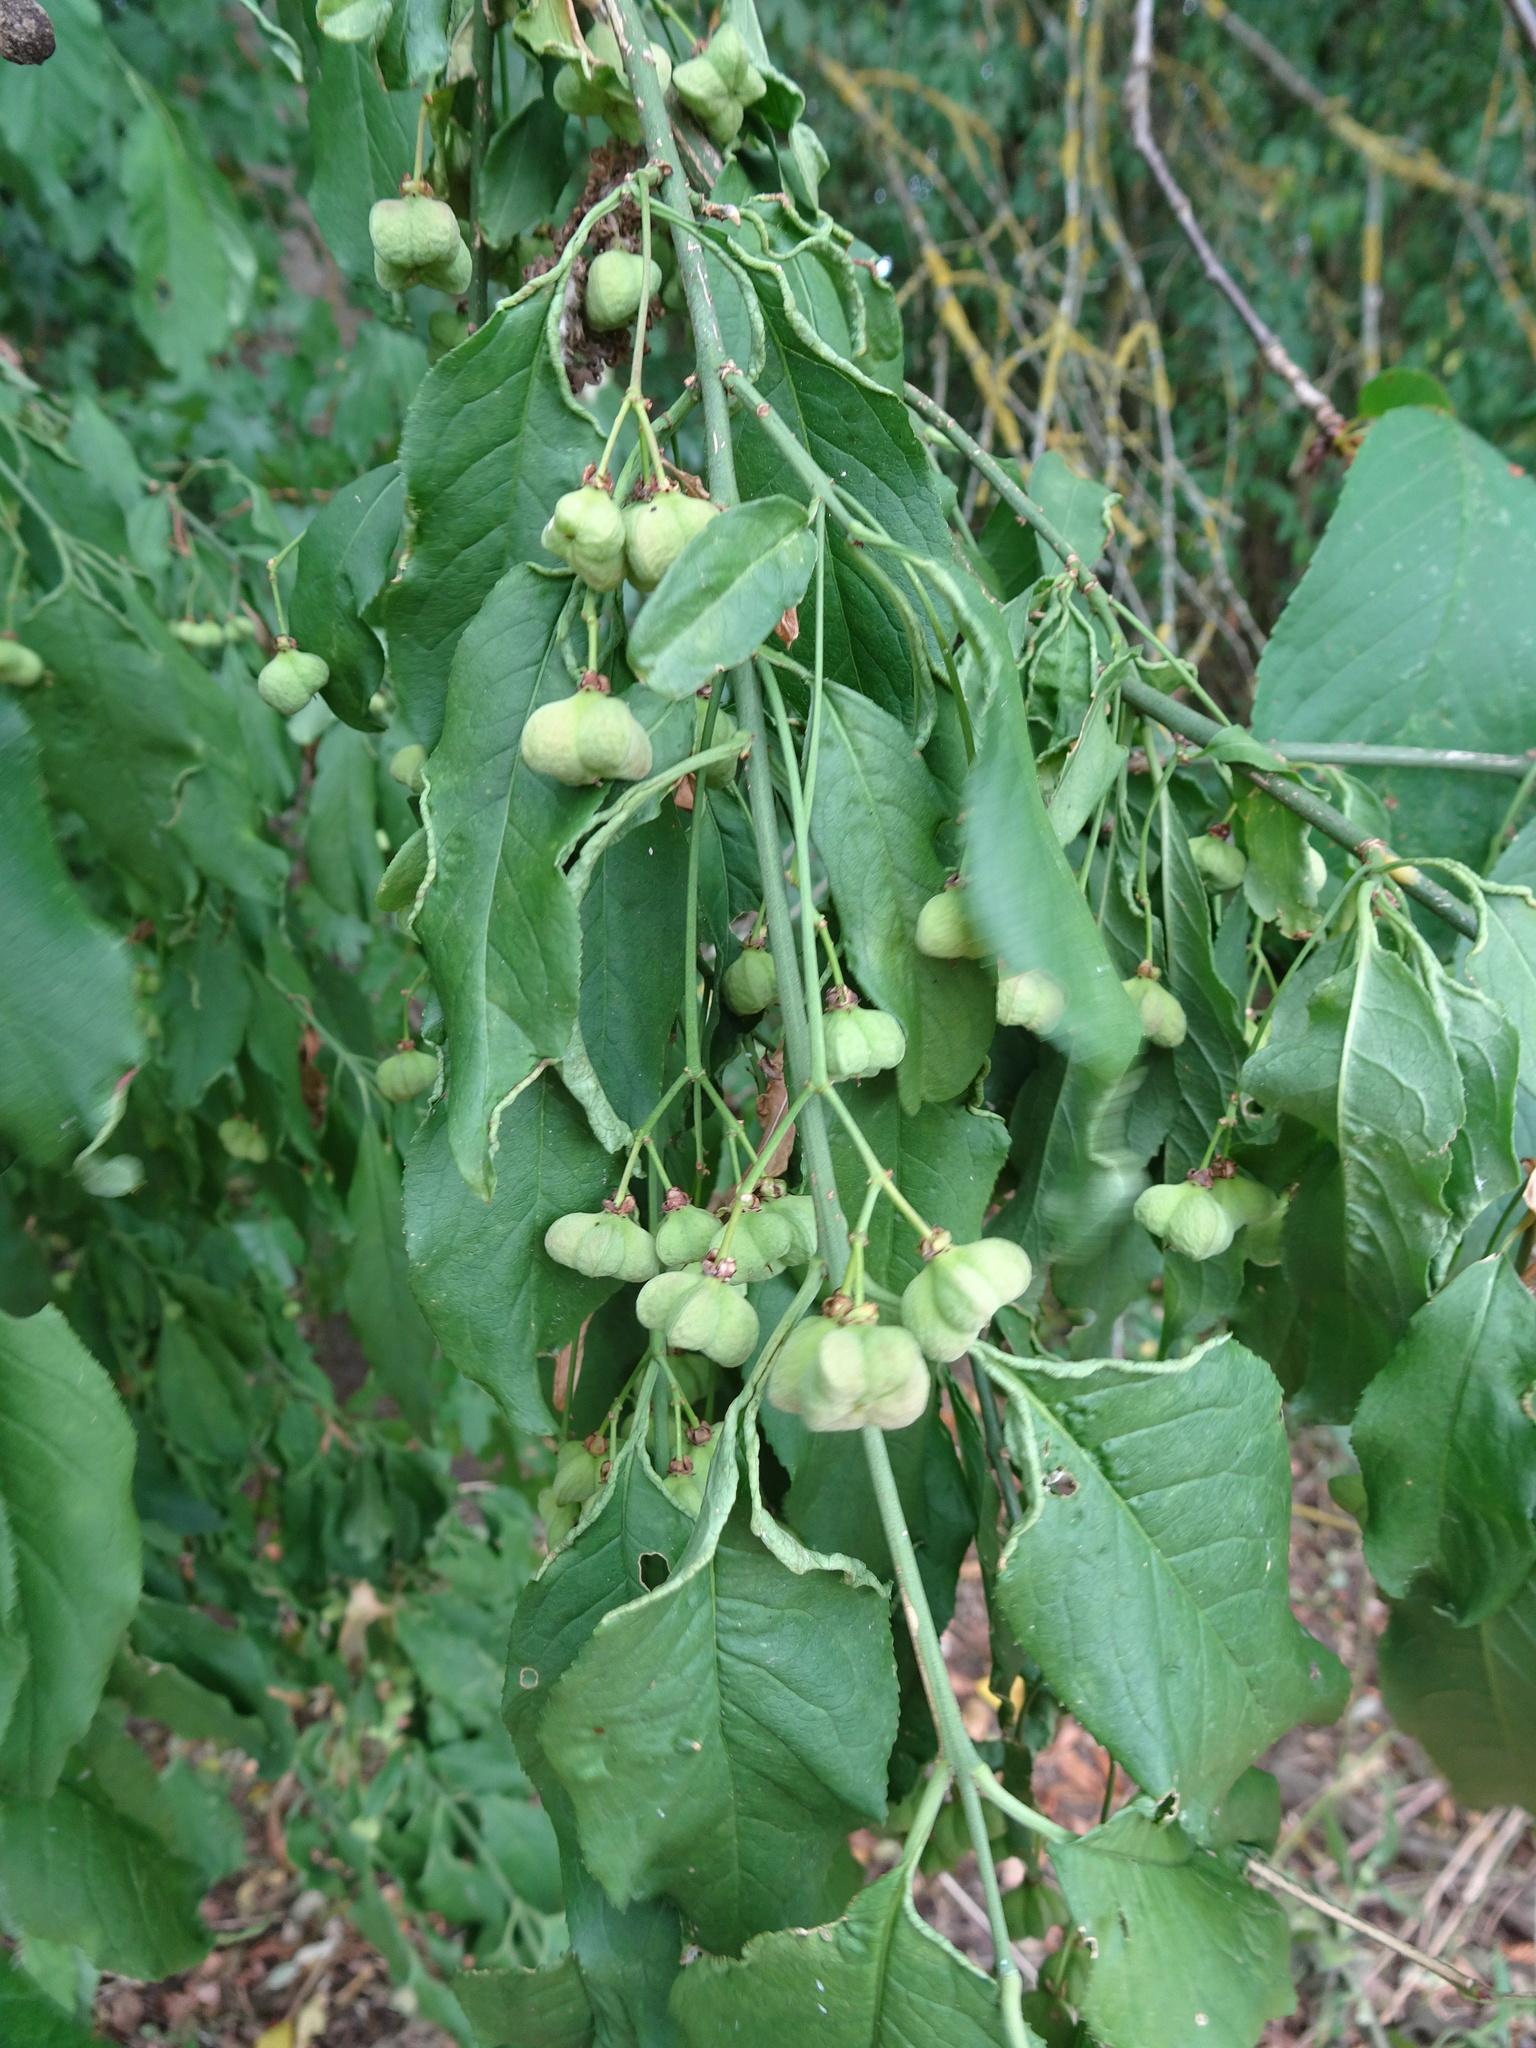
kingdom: Plantae
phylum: Tracheophyta
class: Magnoliopsida
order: Celastrales
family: Celastraceae
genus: Euonymus
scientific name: Euonymus europaeus
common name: Spindle
